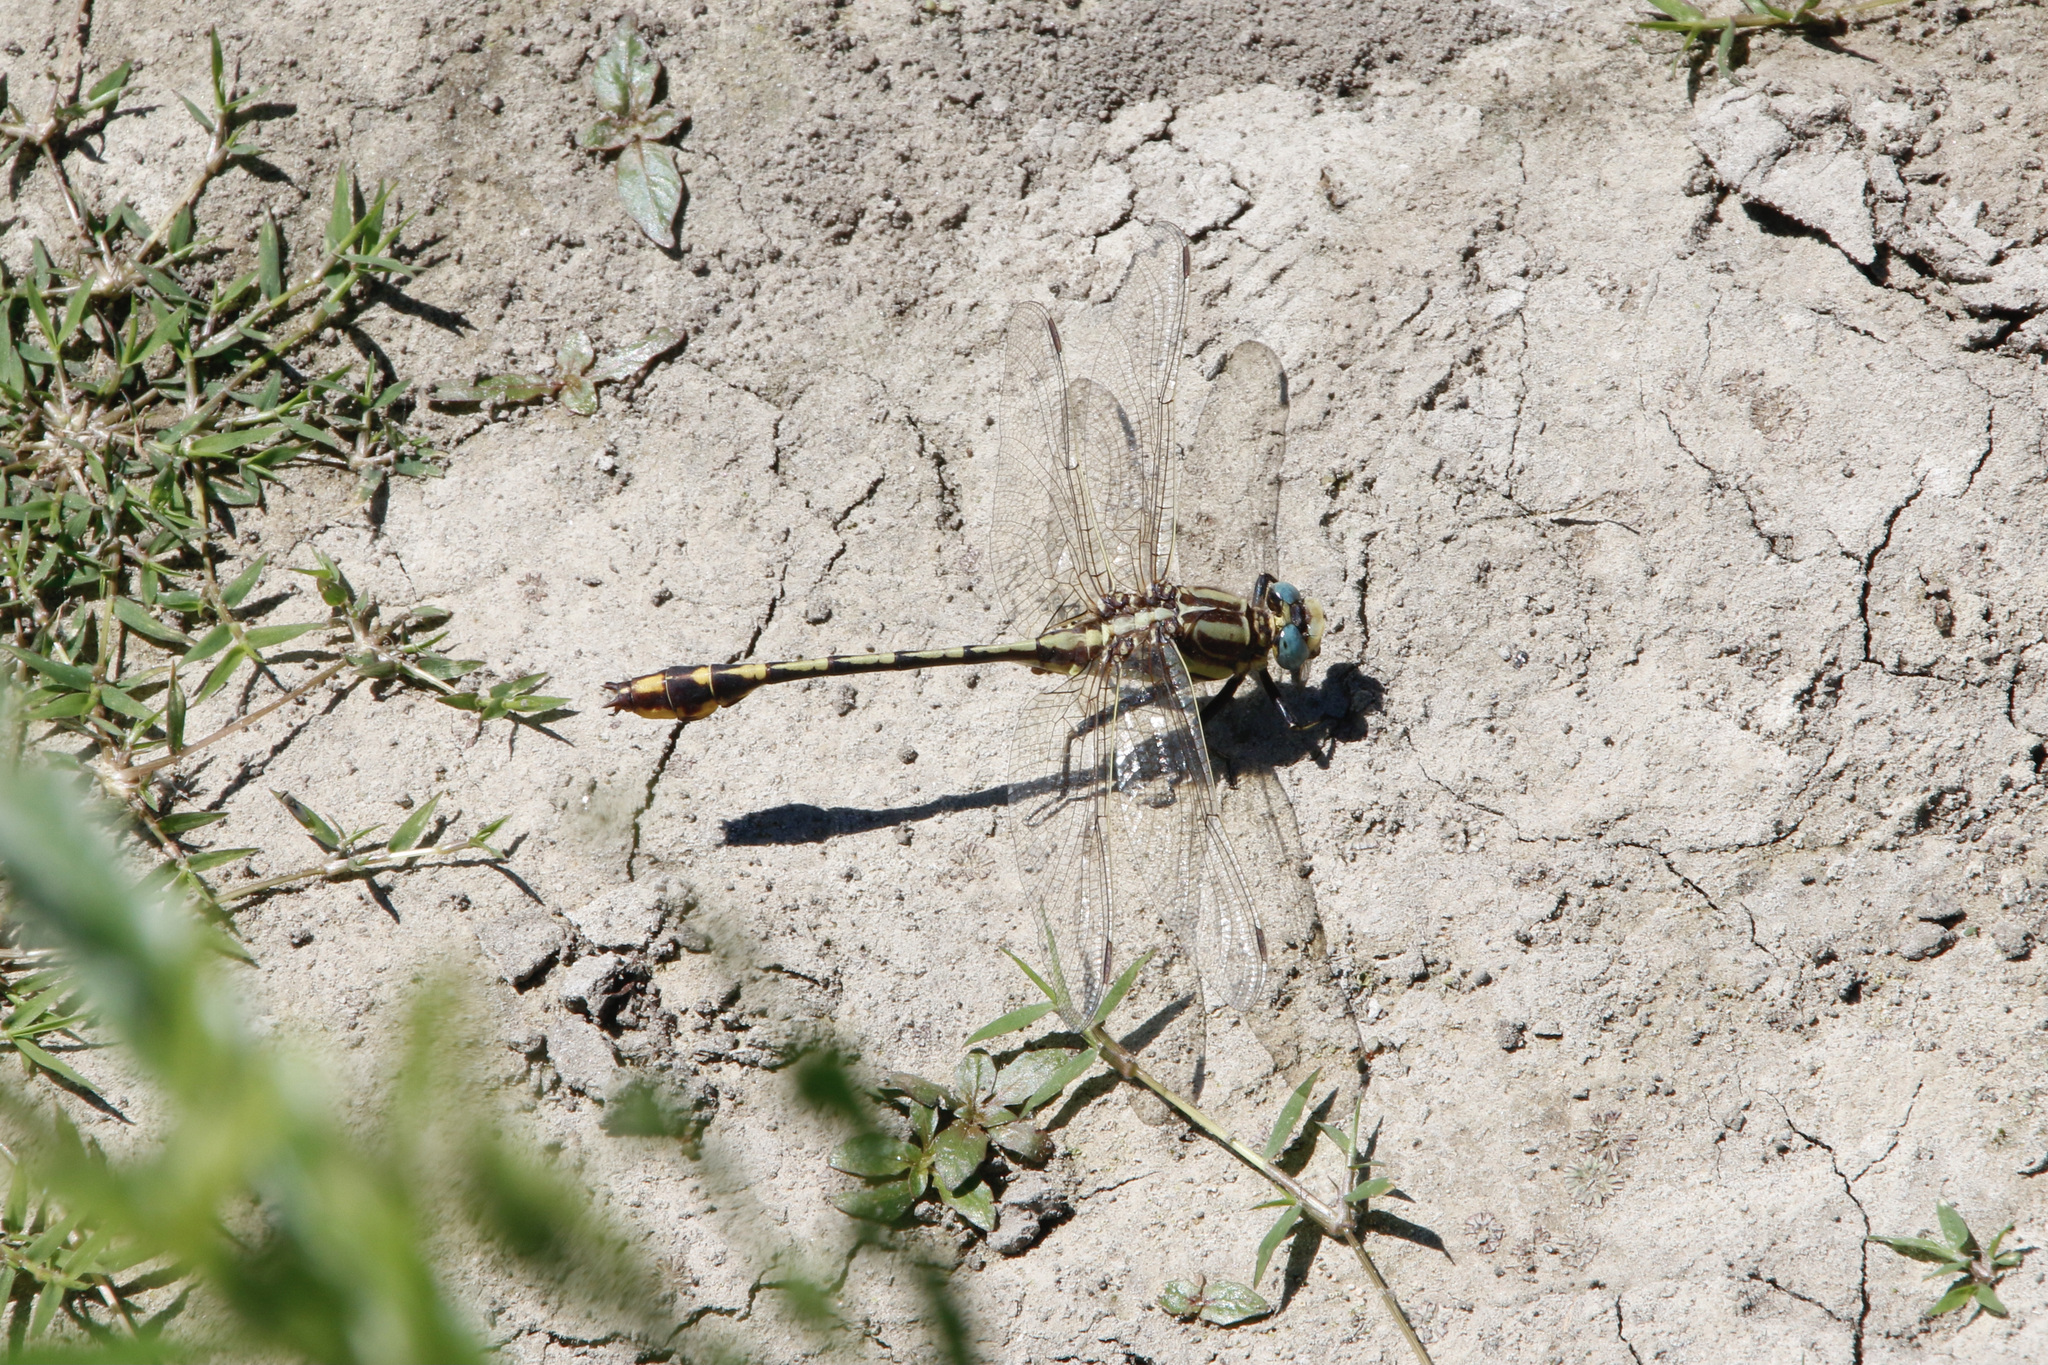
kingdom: Animalia
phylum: Arthropoda
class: Insecta
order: Odonata
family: Gomphidae
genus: Gomphurus
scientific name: Gomphurus externus
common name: Plains clubtail
